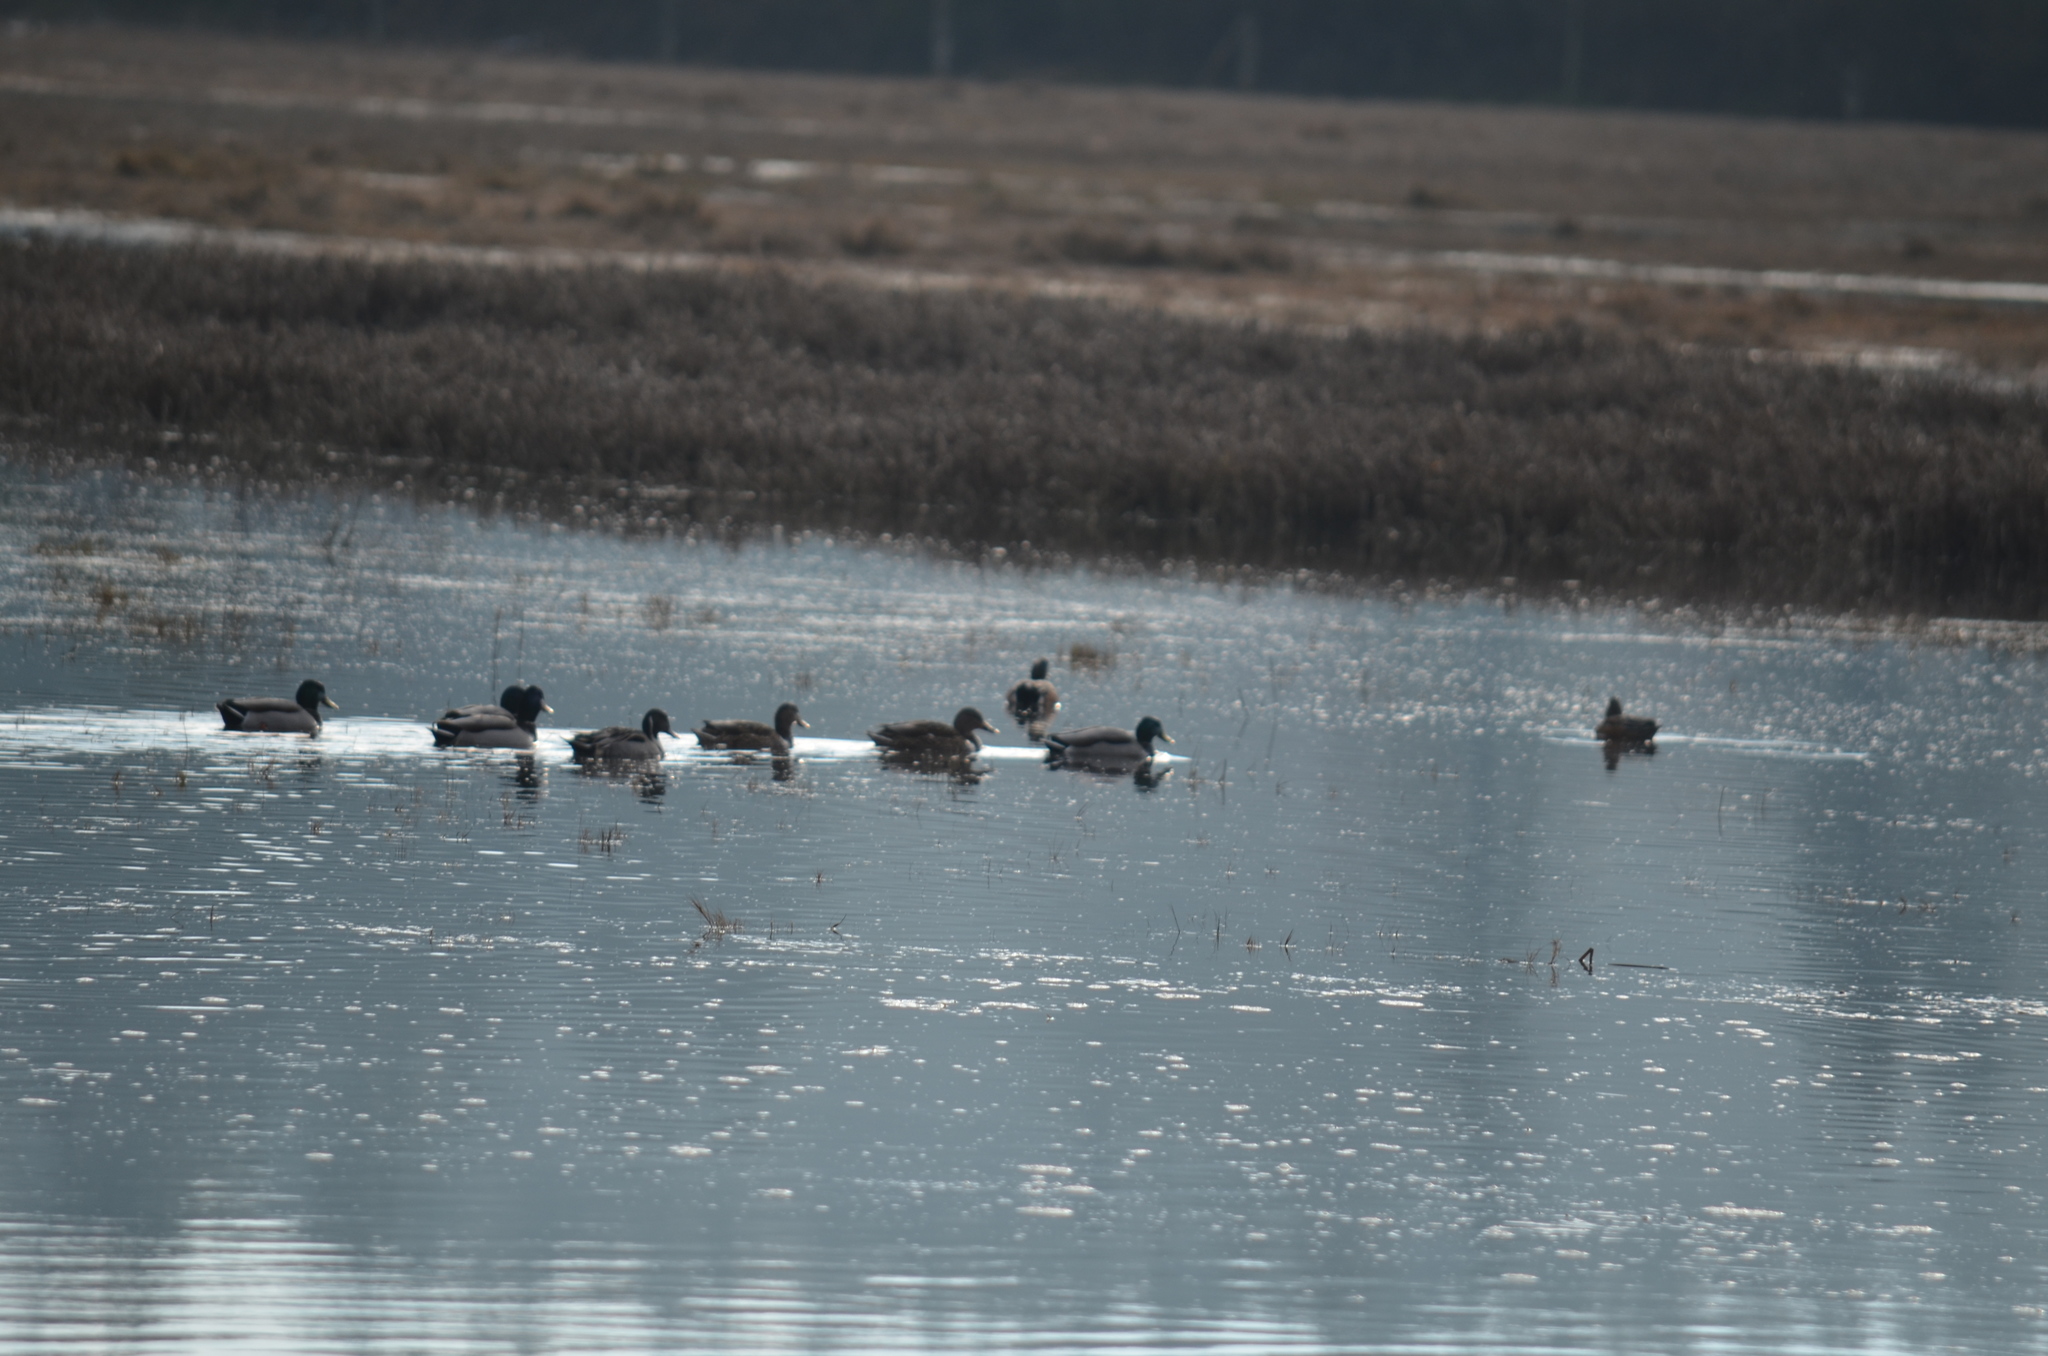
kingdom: Animalia
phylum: Chordata
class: Aves
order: Anseriformes
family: Anatidae
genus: Anas
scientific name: Anas acuta
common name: Northern pintail
